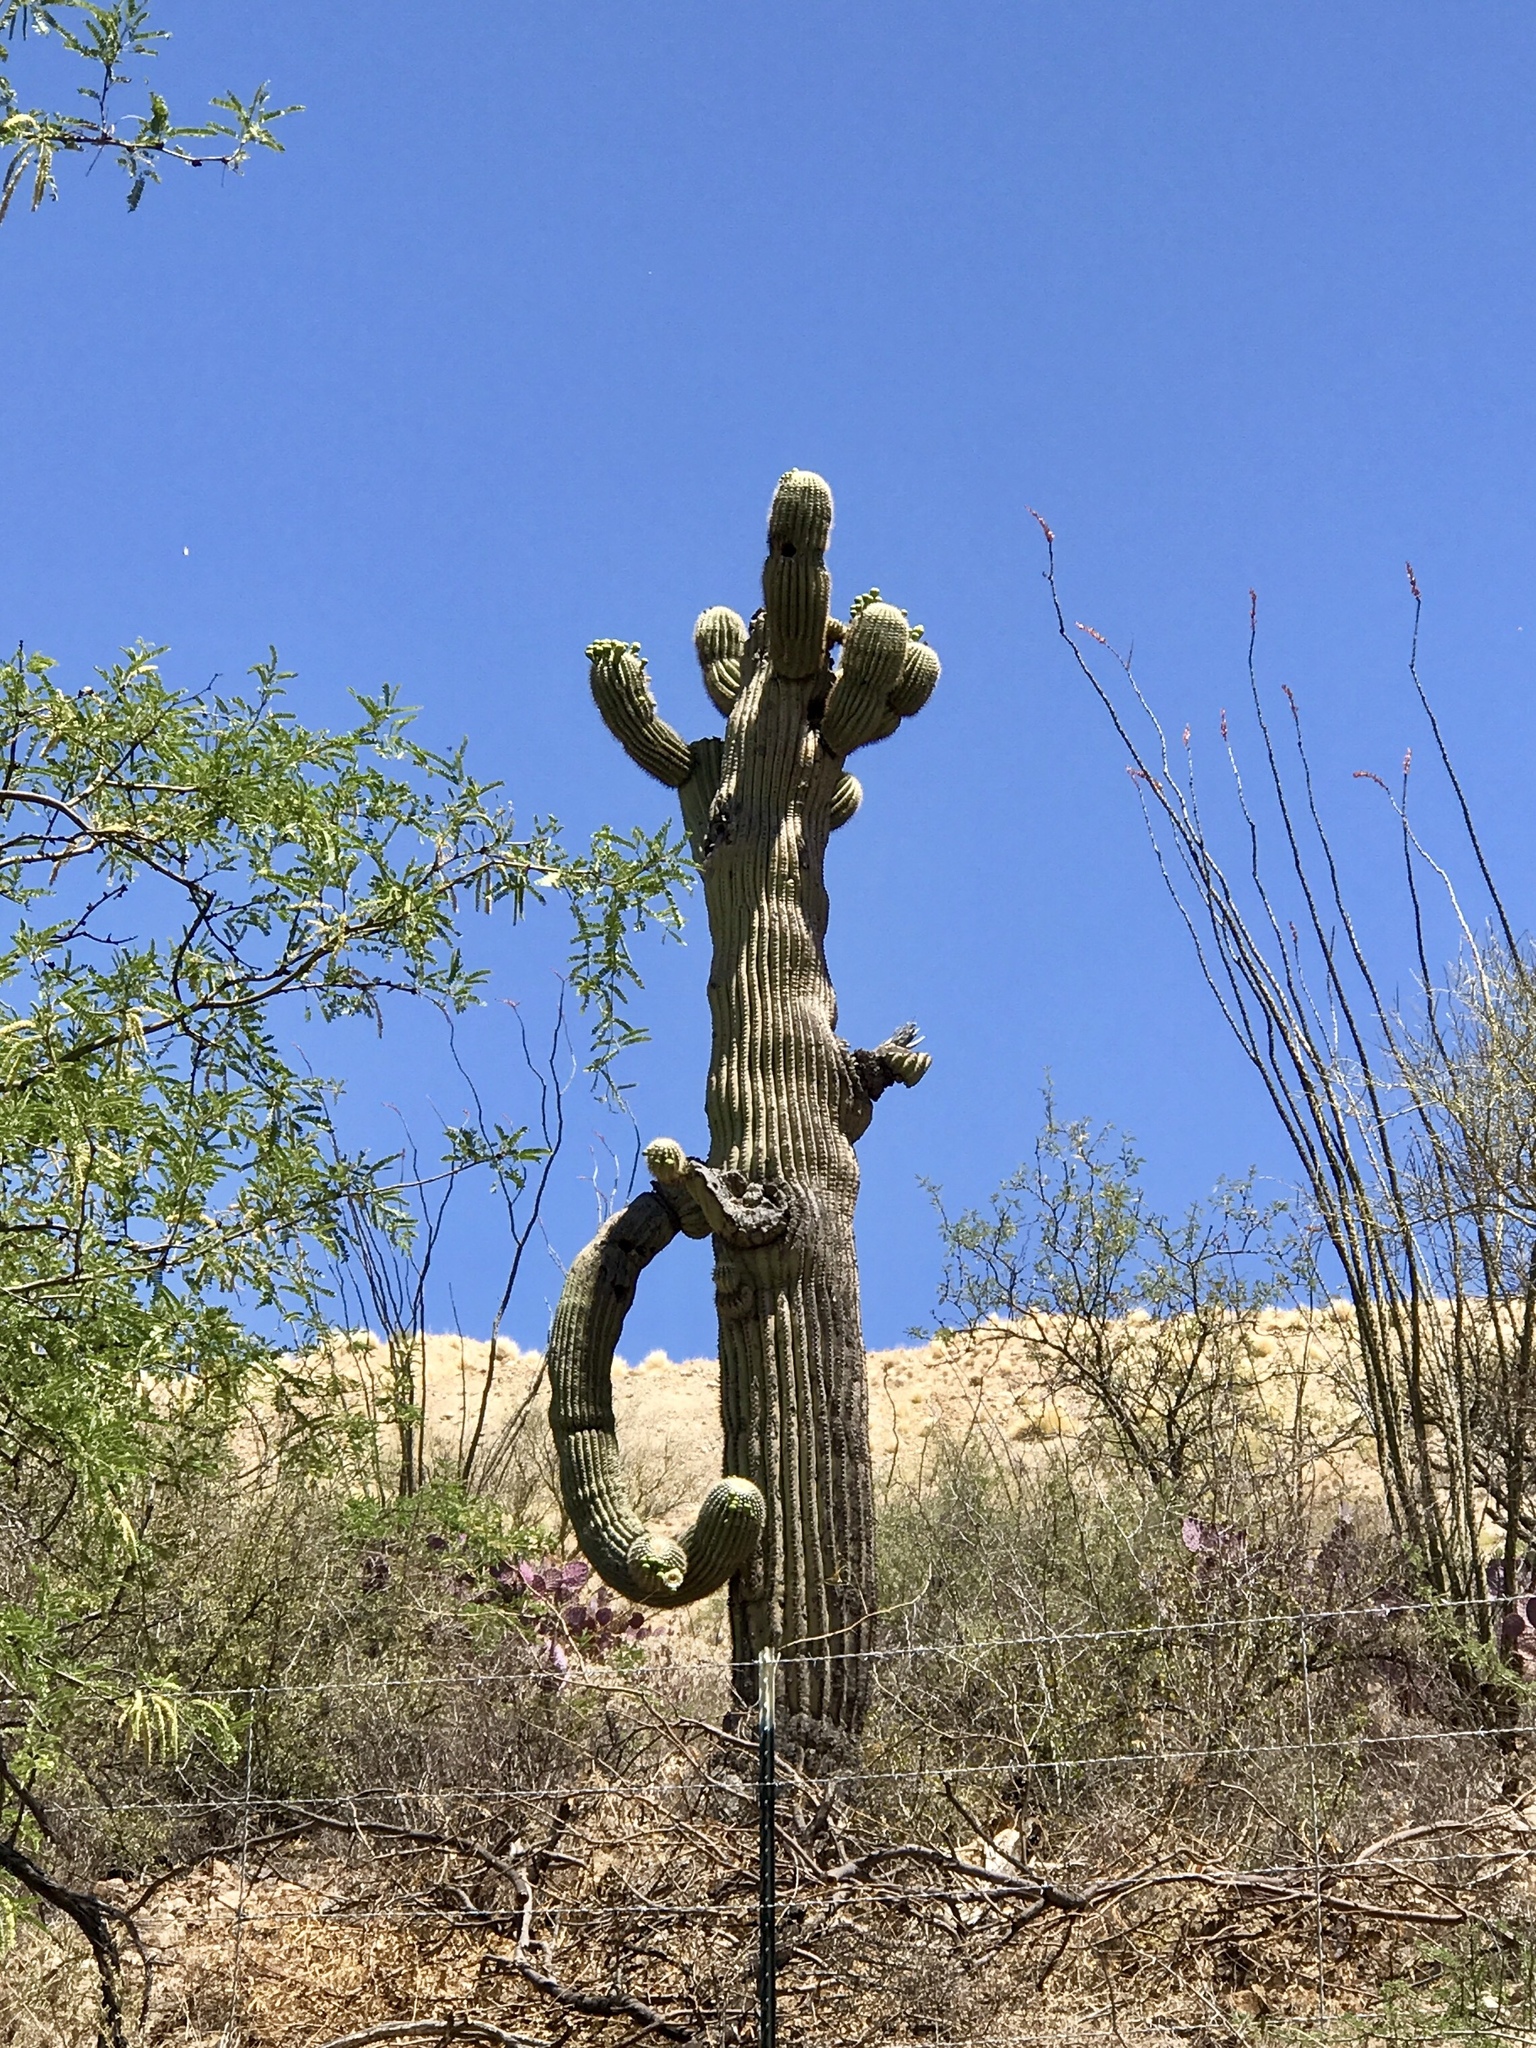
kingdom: Plantae
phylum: Tracheophyta
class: Magnoliopsida
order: Caryophyllales
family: Cactaceae
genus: Carnegiea
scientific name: Carnegiea gigantea
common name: Saguaro
